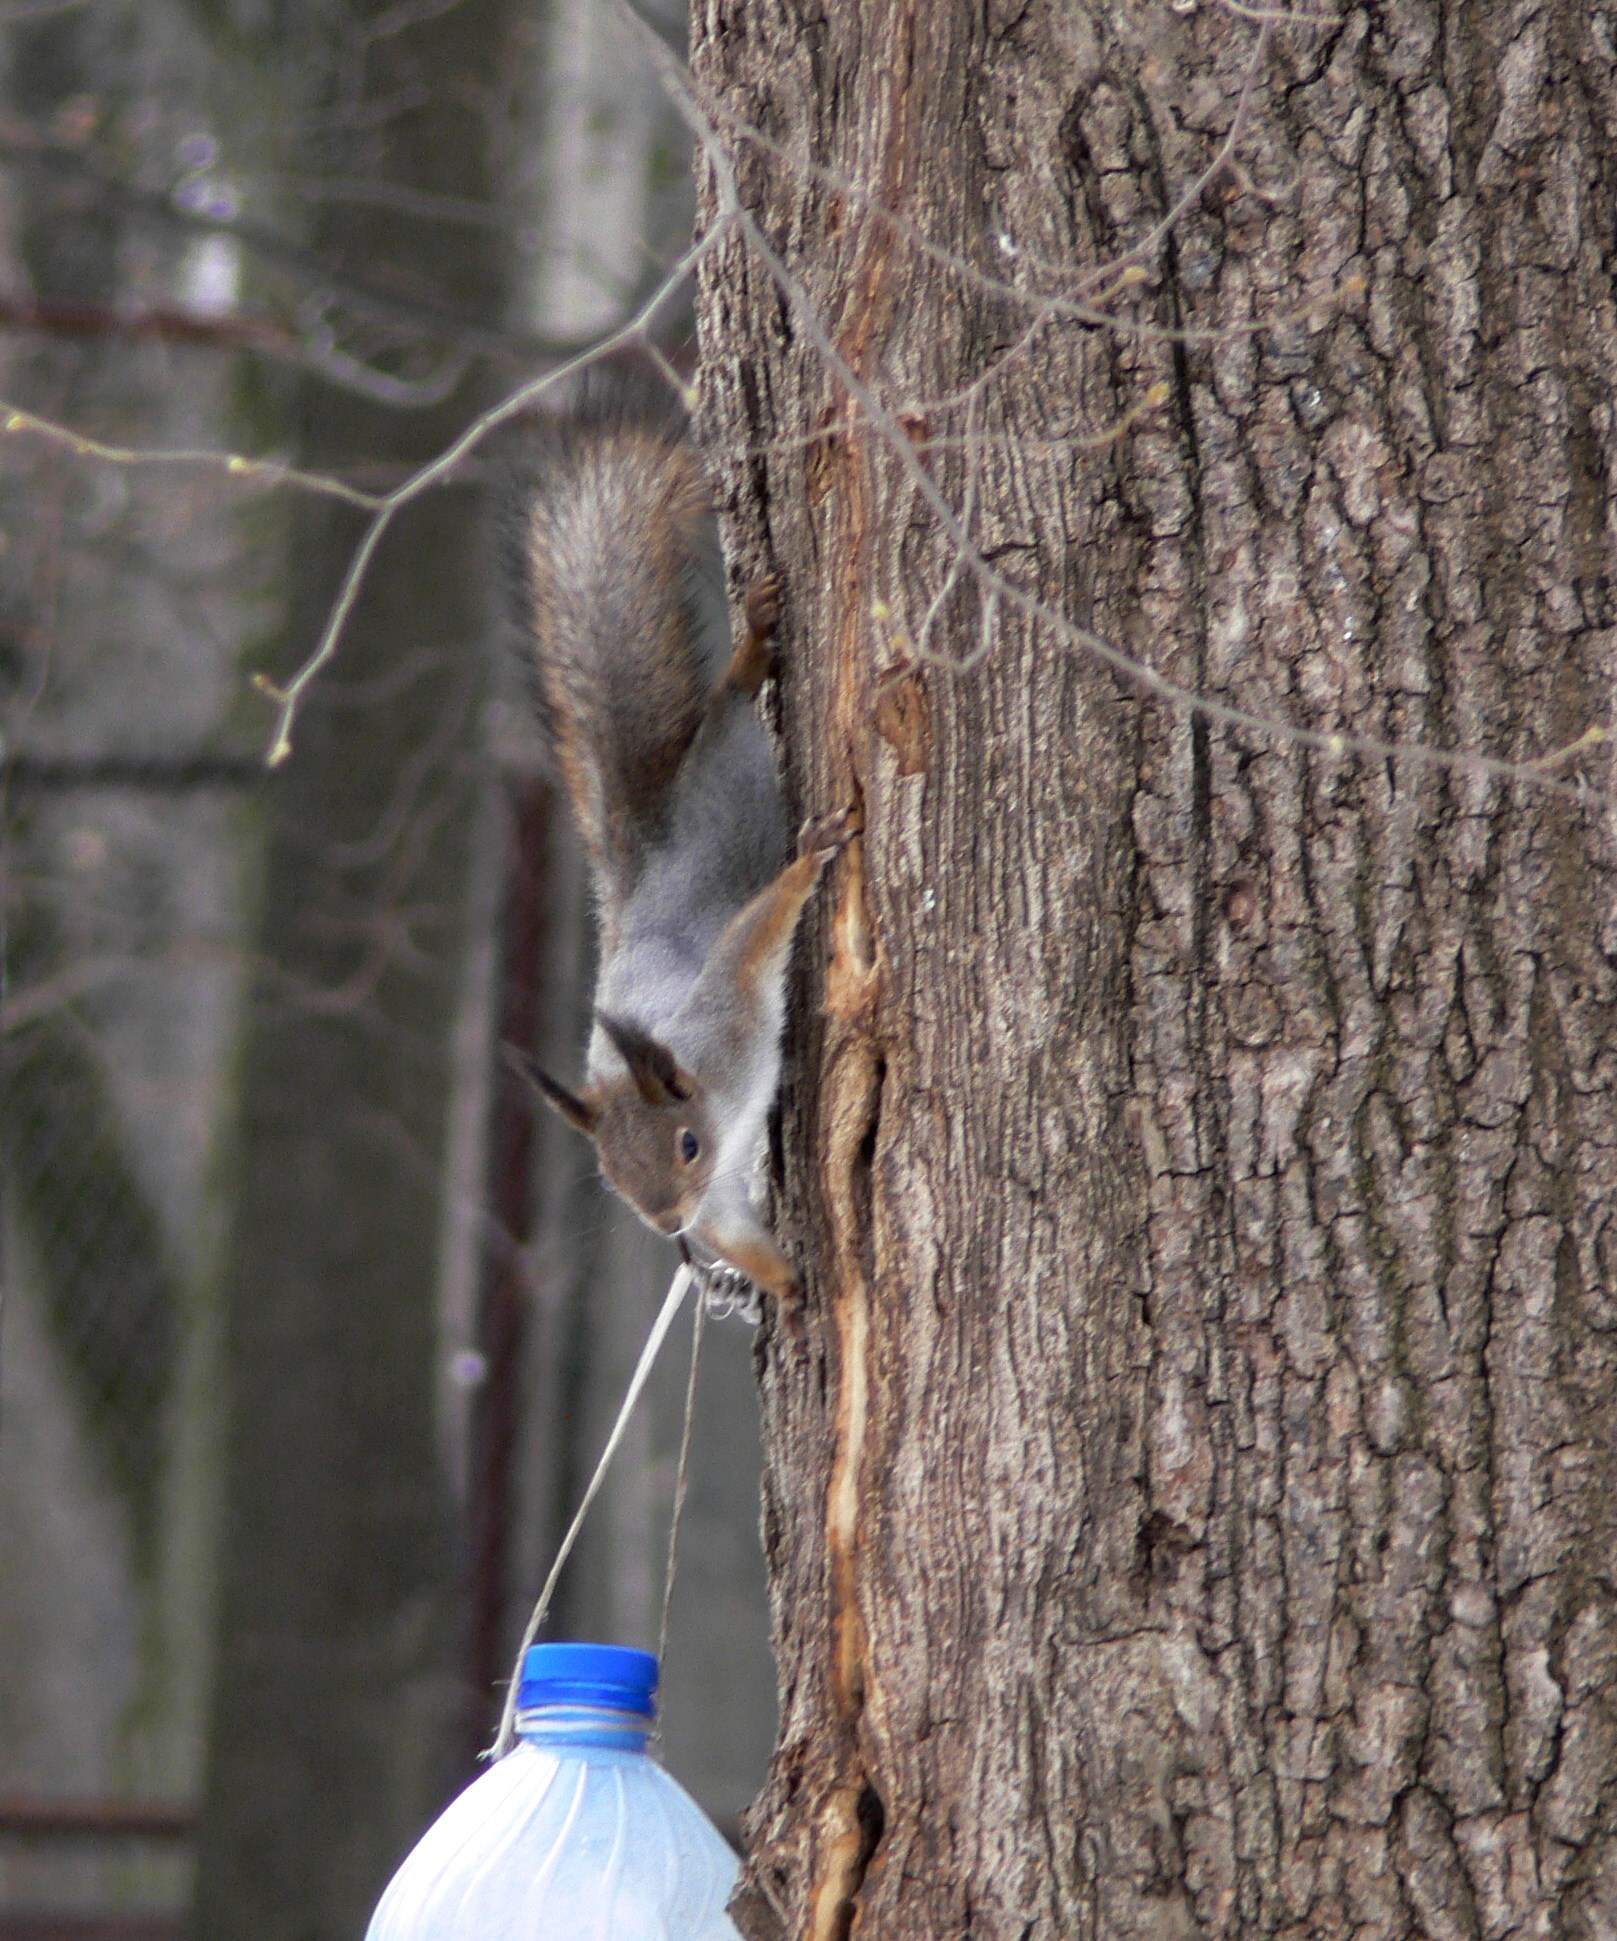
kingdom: Animalia
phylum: Chordata
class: Mammalia
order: Rodentia
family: Sciuridae
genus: Sciurus
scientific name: Sciurus vulgaris
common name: Eurasian red squirrel
